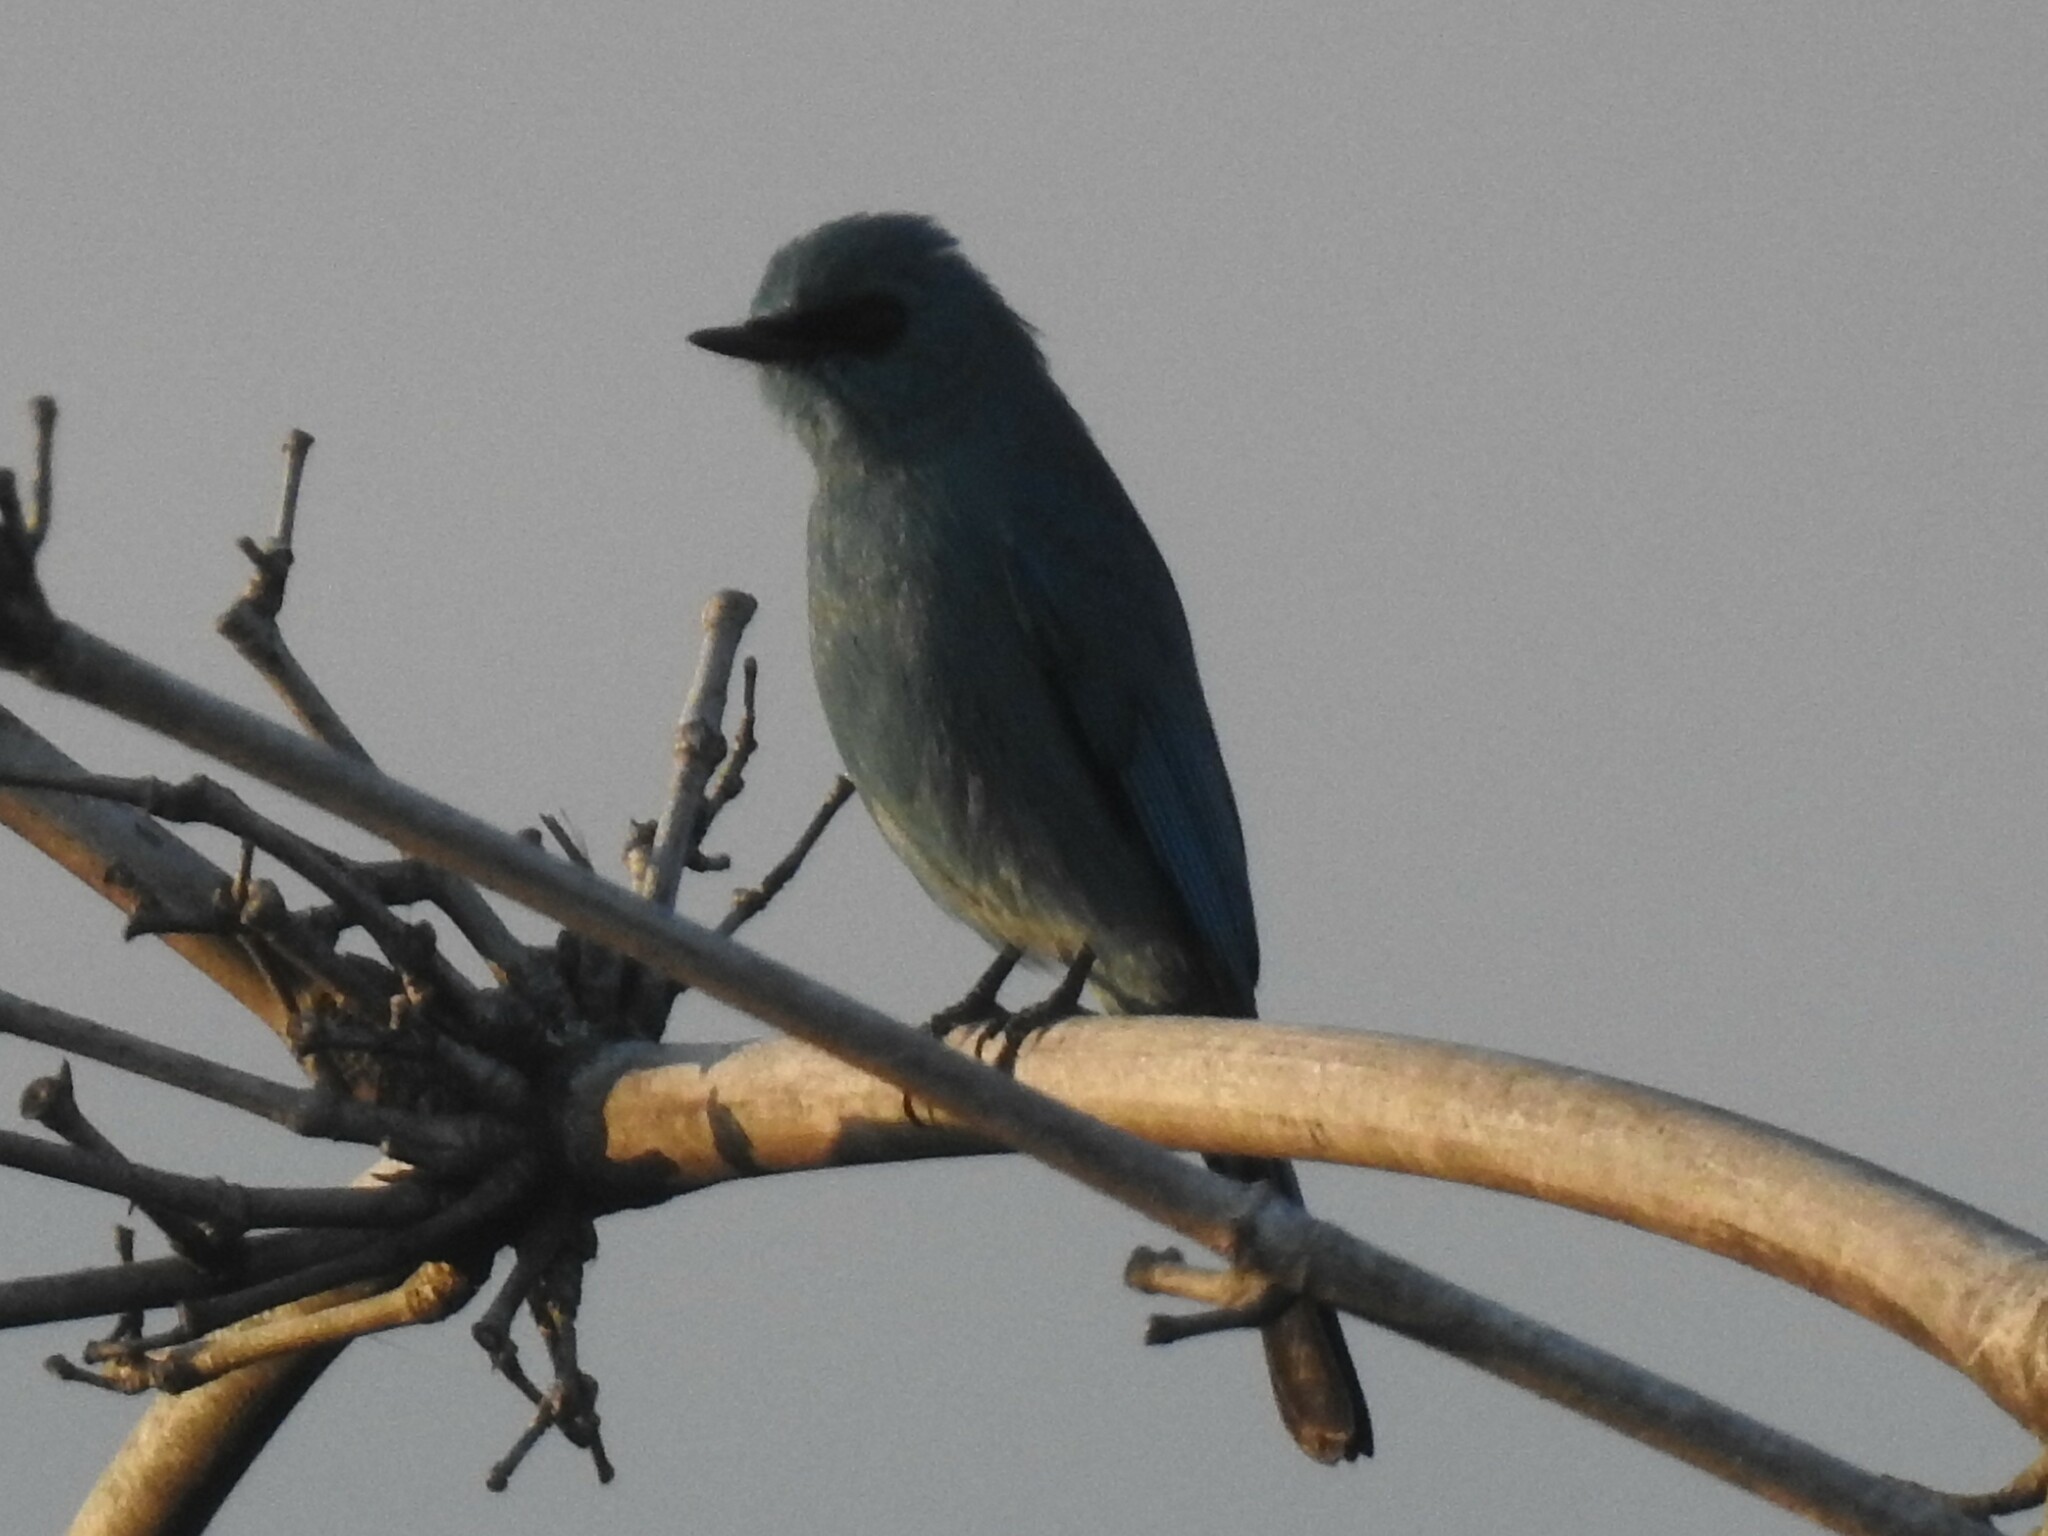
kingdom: Animalia
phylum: Chordata
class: Aves
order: Passeriformes
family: Muscicapidae
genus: Eumyias
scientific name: Eumyias thalassinus
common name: Verditer flycatcher
